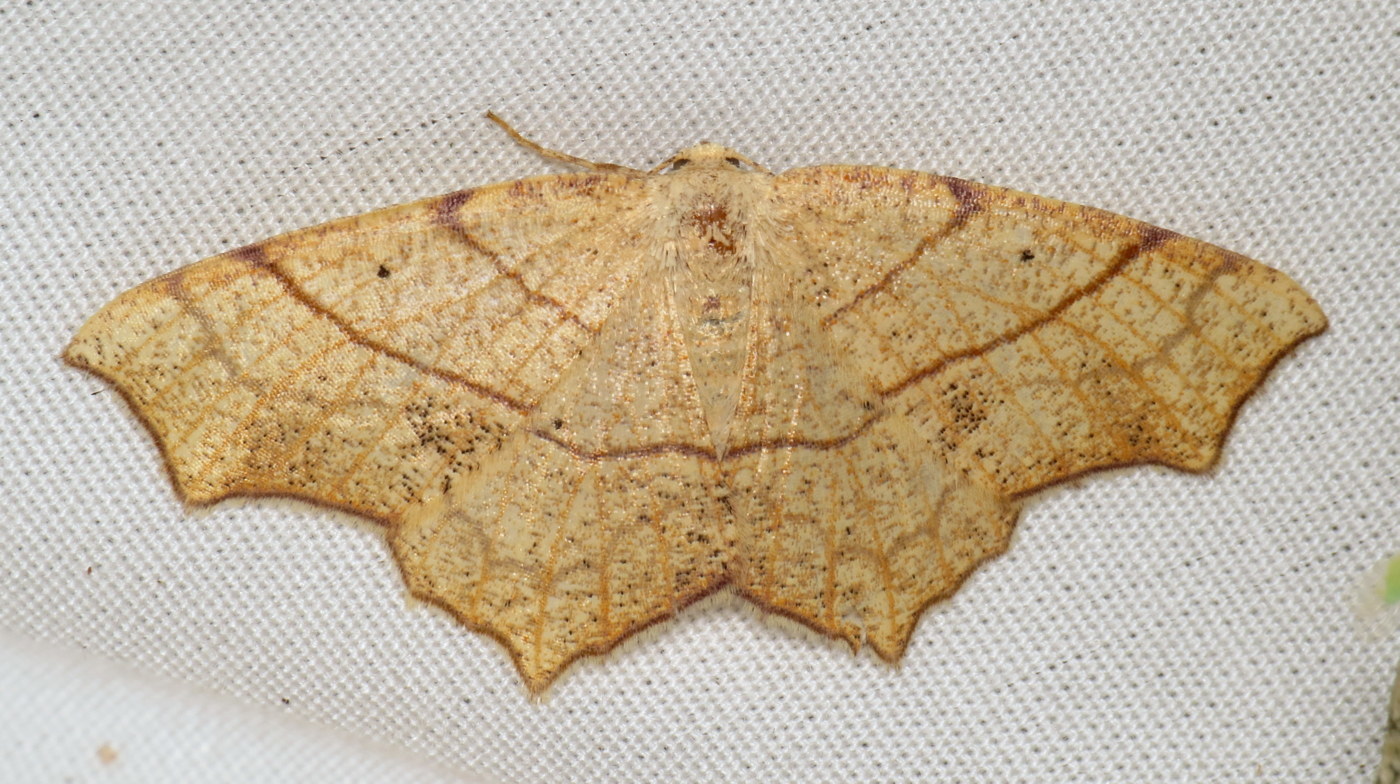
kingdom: Animalia
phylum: Arthropoda
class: Insecta
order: Lepidoptera
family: Geometridae
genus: Besma
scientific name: Besma quercivoraria
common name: Oak besma
